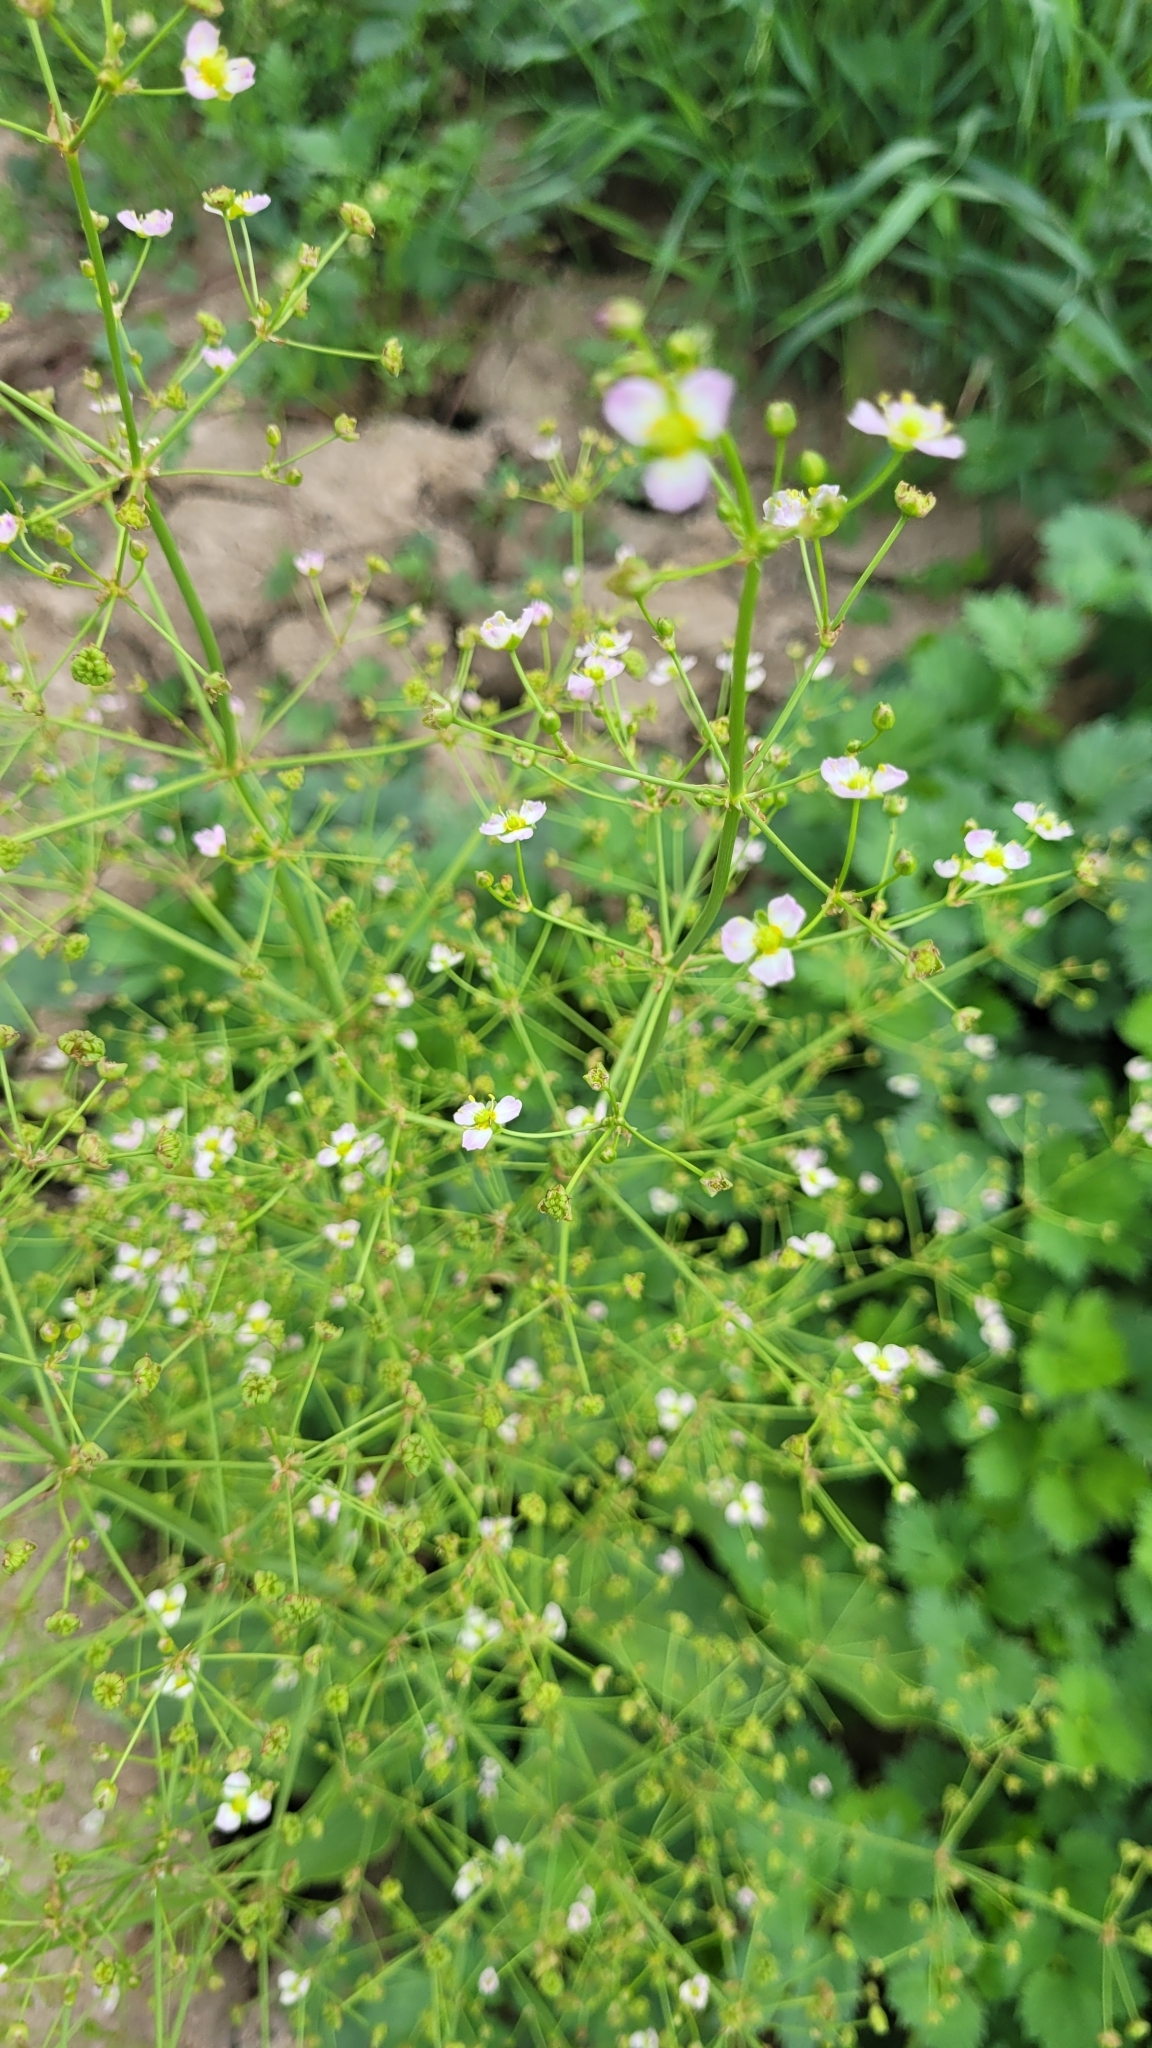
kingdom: Plantae
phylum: Tracheophyta
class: Liliopsida
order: Alismatales
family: Alismataceae
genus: Alisma
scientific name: Alisma plantago-aquatica
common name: Water-plantain
